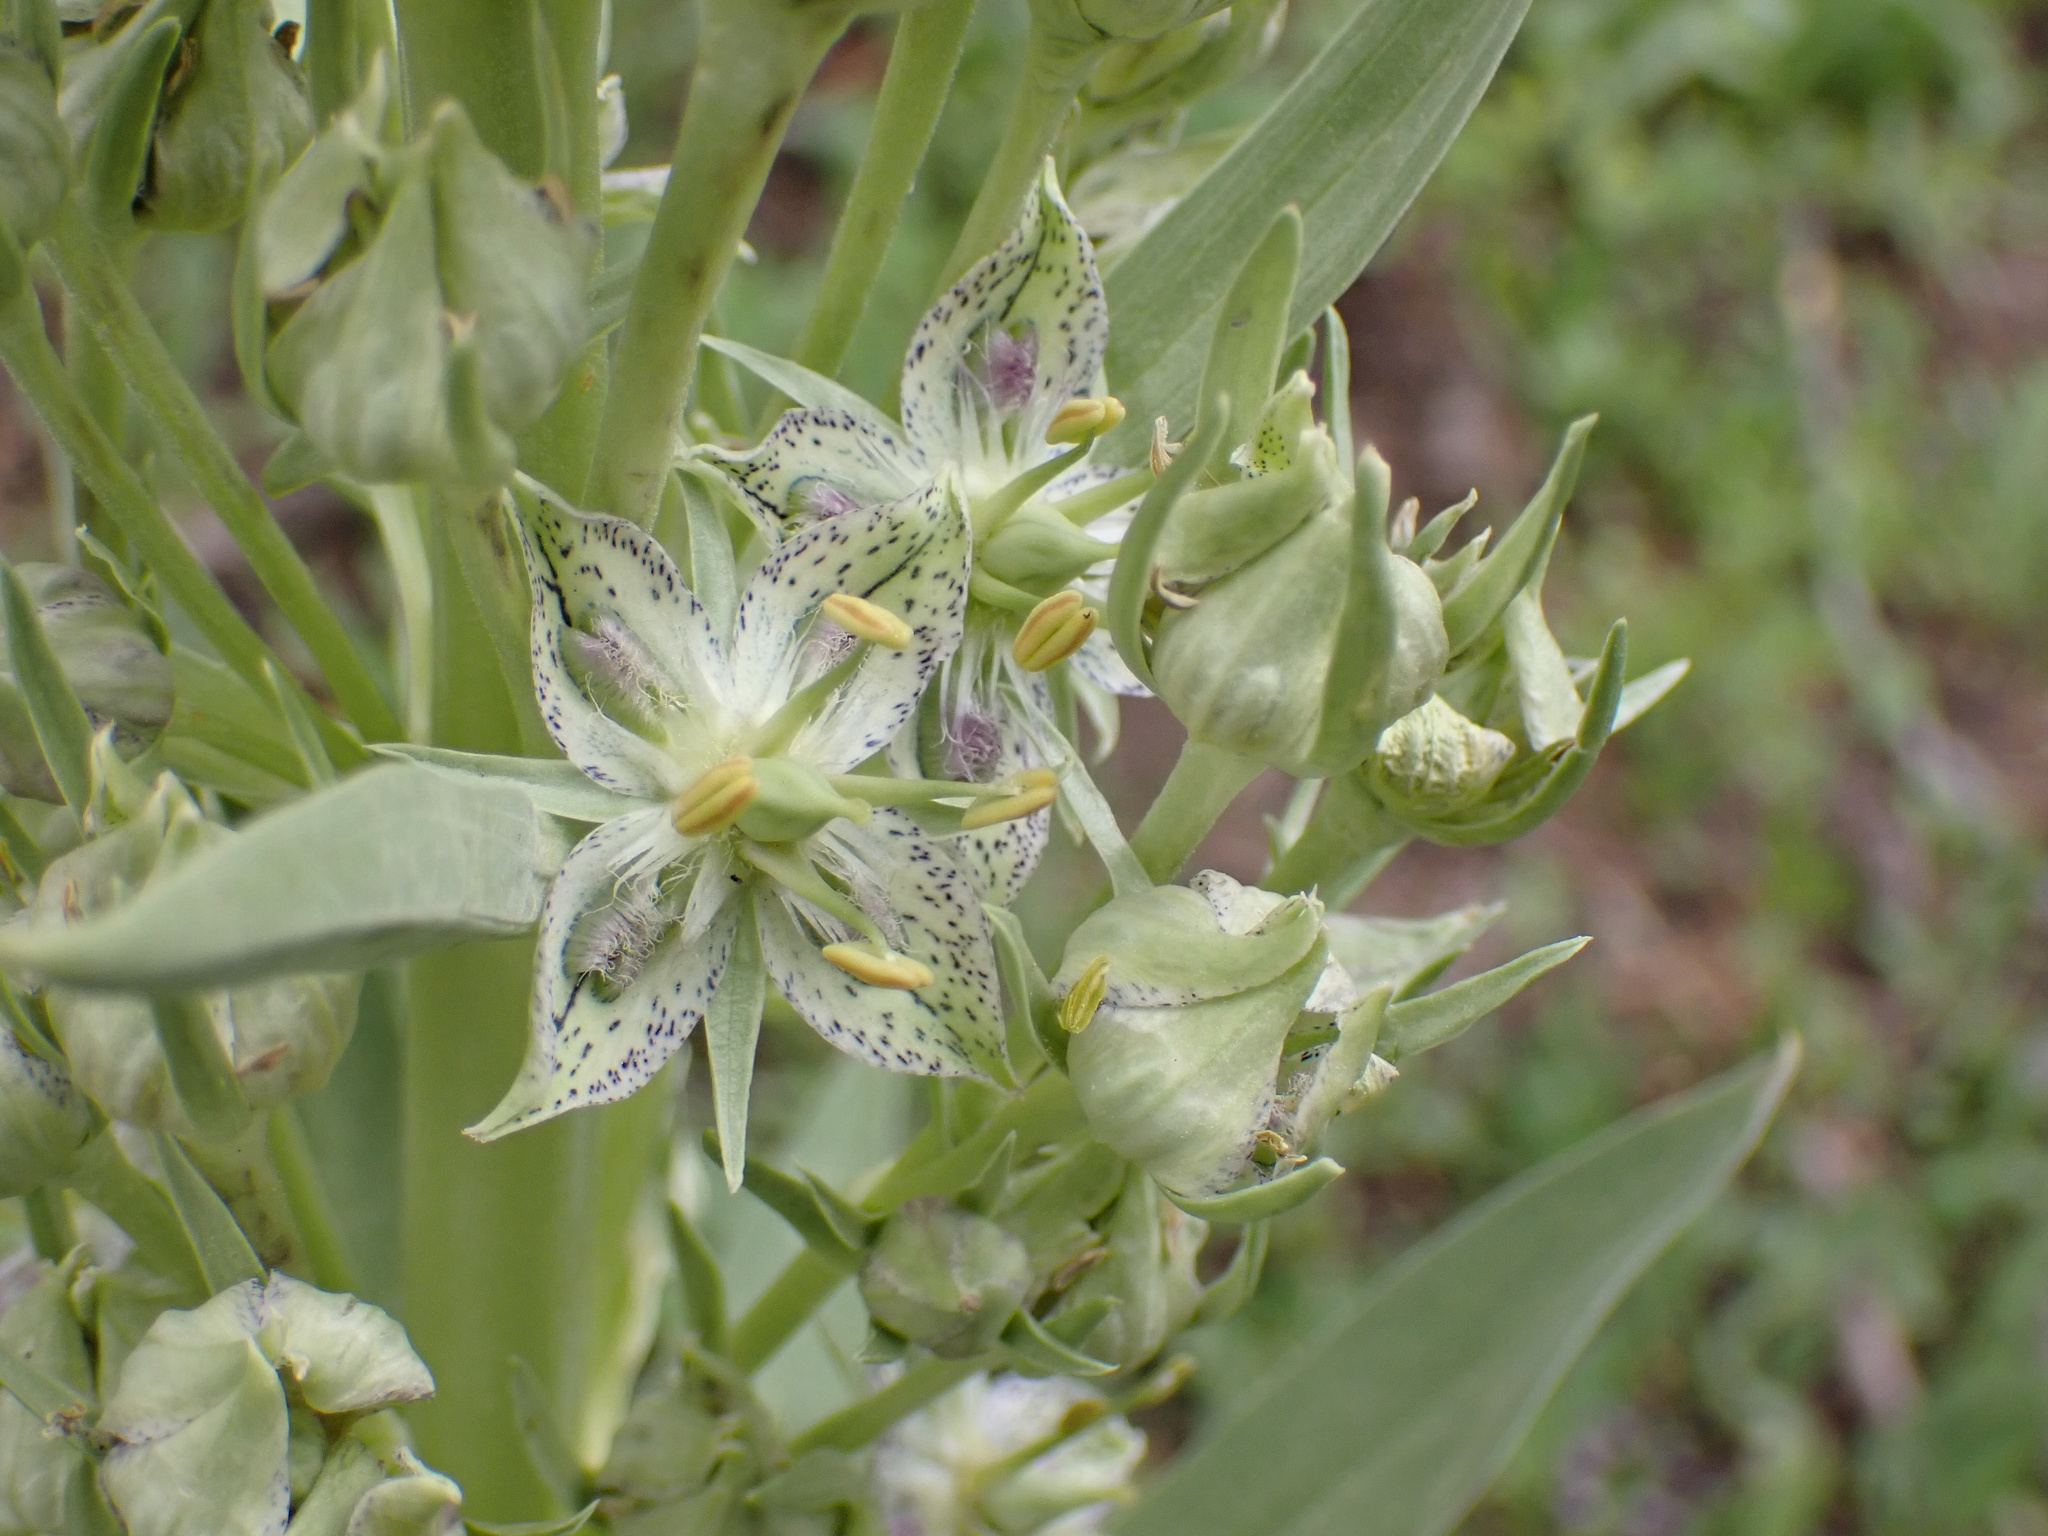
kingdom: Plantae
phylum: Tracheophyta
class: Magnoliopsida
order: Gentianales
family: Gentianaceae
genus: Frasera
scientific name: Frasera speciosa
